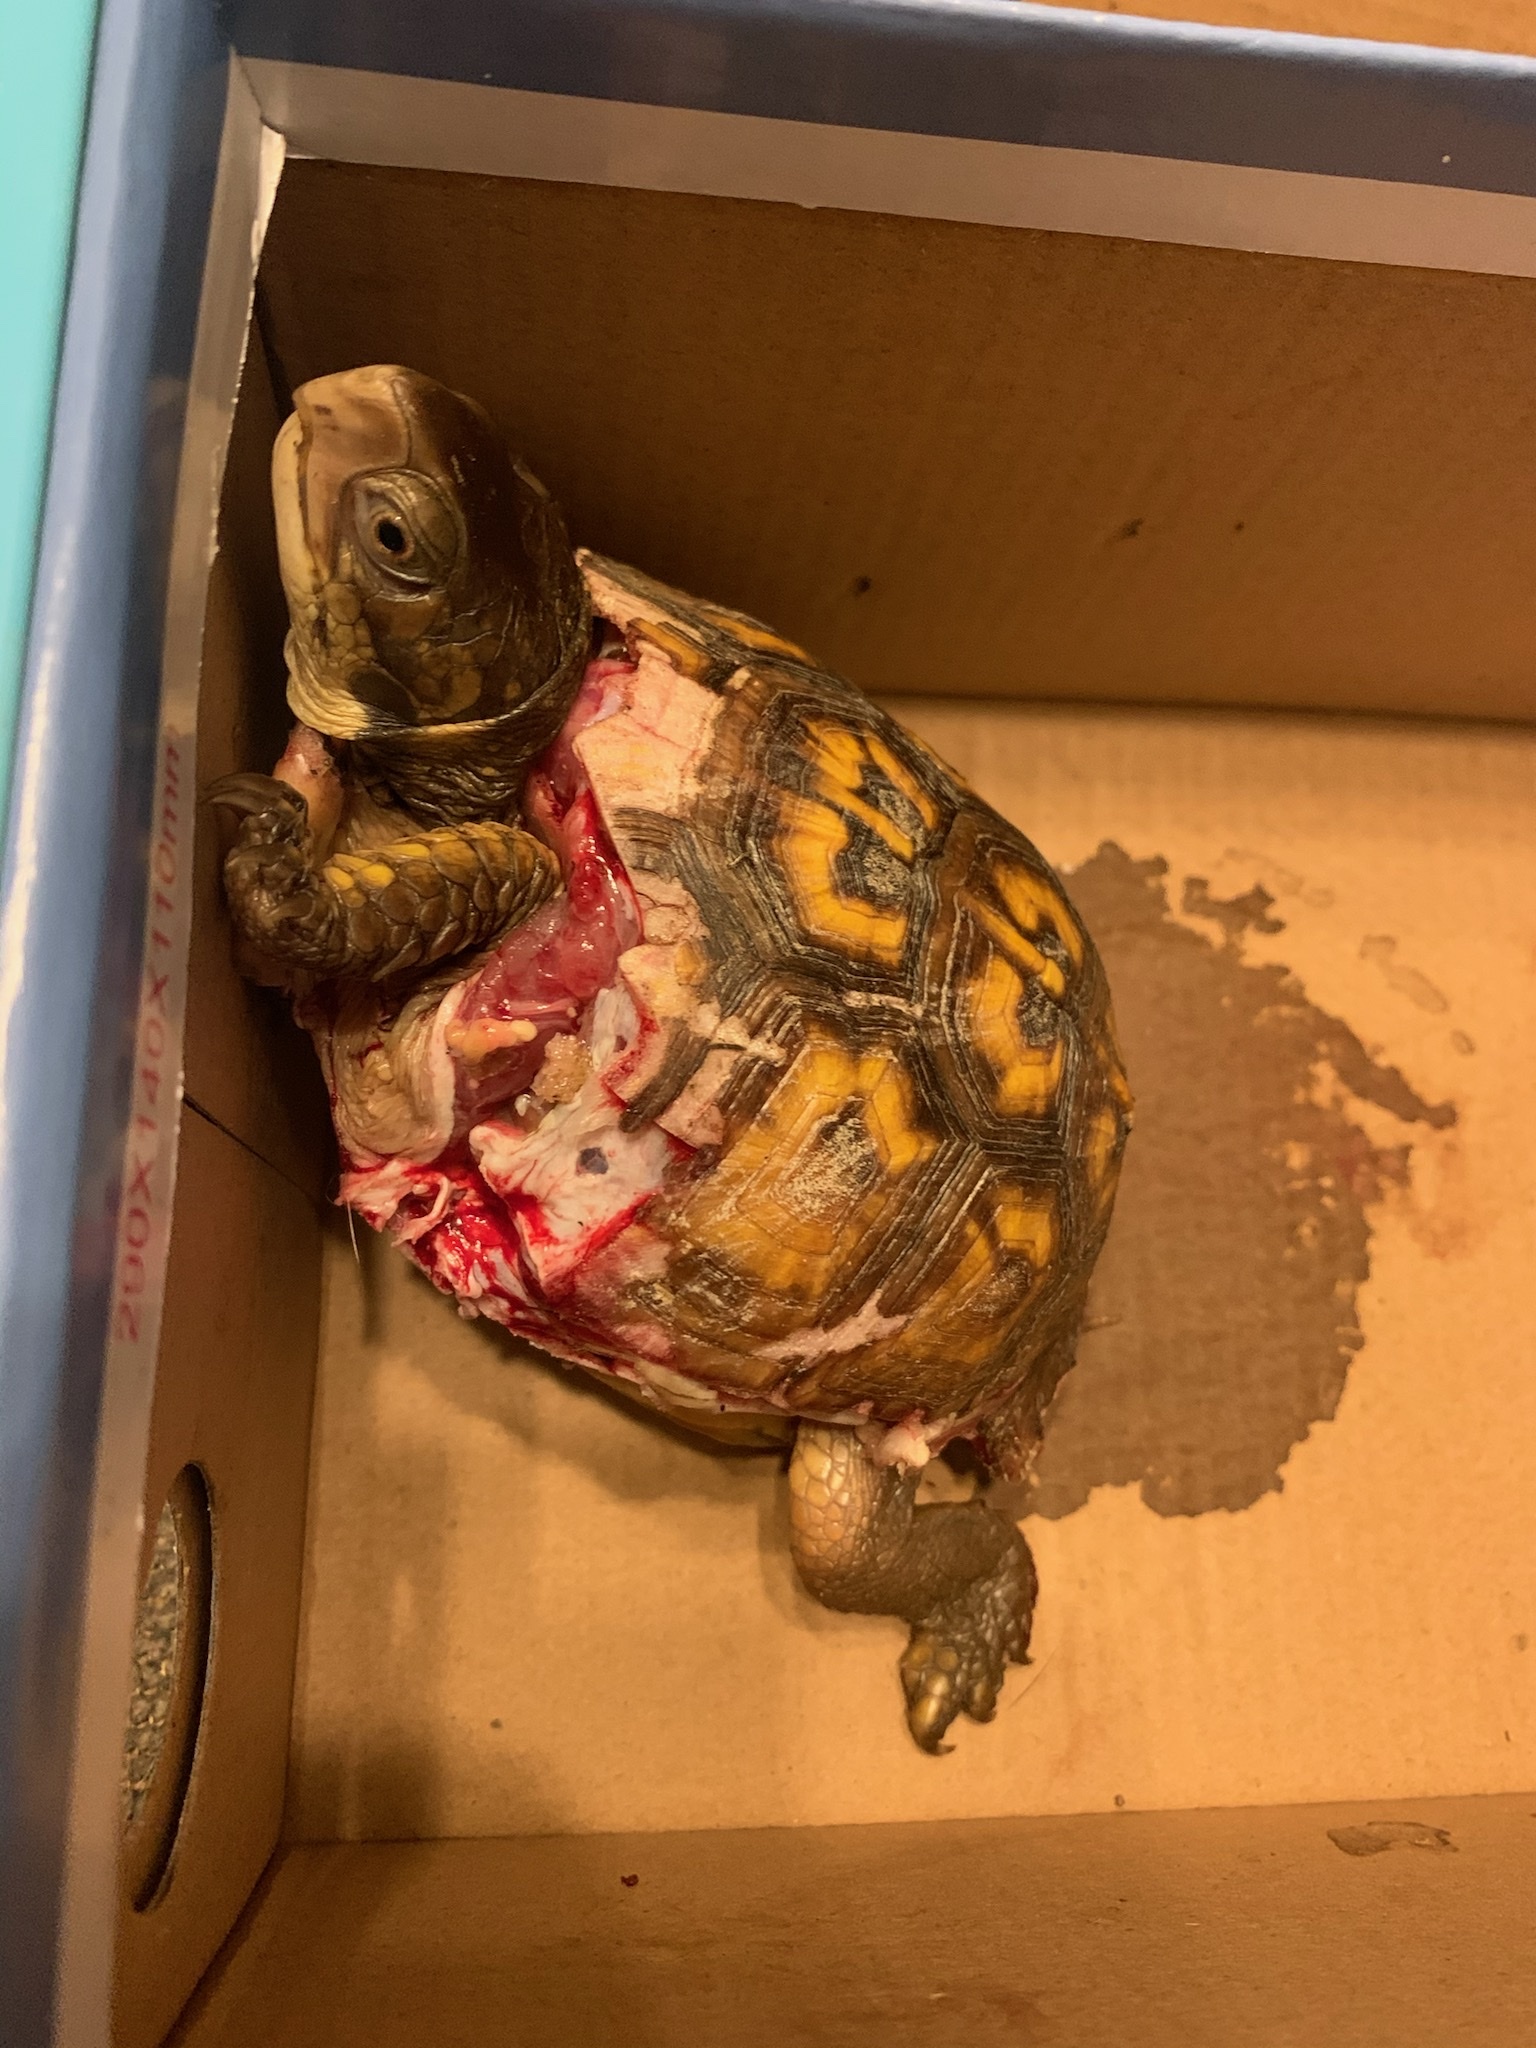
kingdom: Animalia
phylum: Chordata
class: Testudines
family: Emydidae
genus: Terrapene
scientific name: Terrapene carolina
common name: Common box turtle
